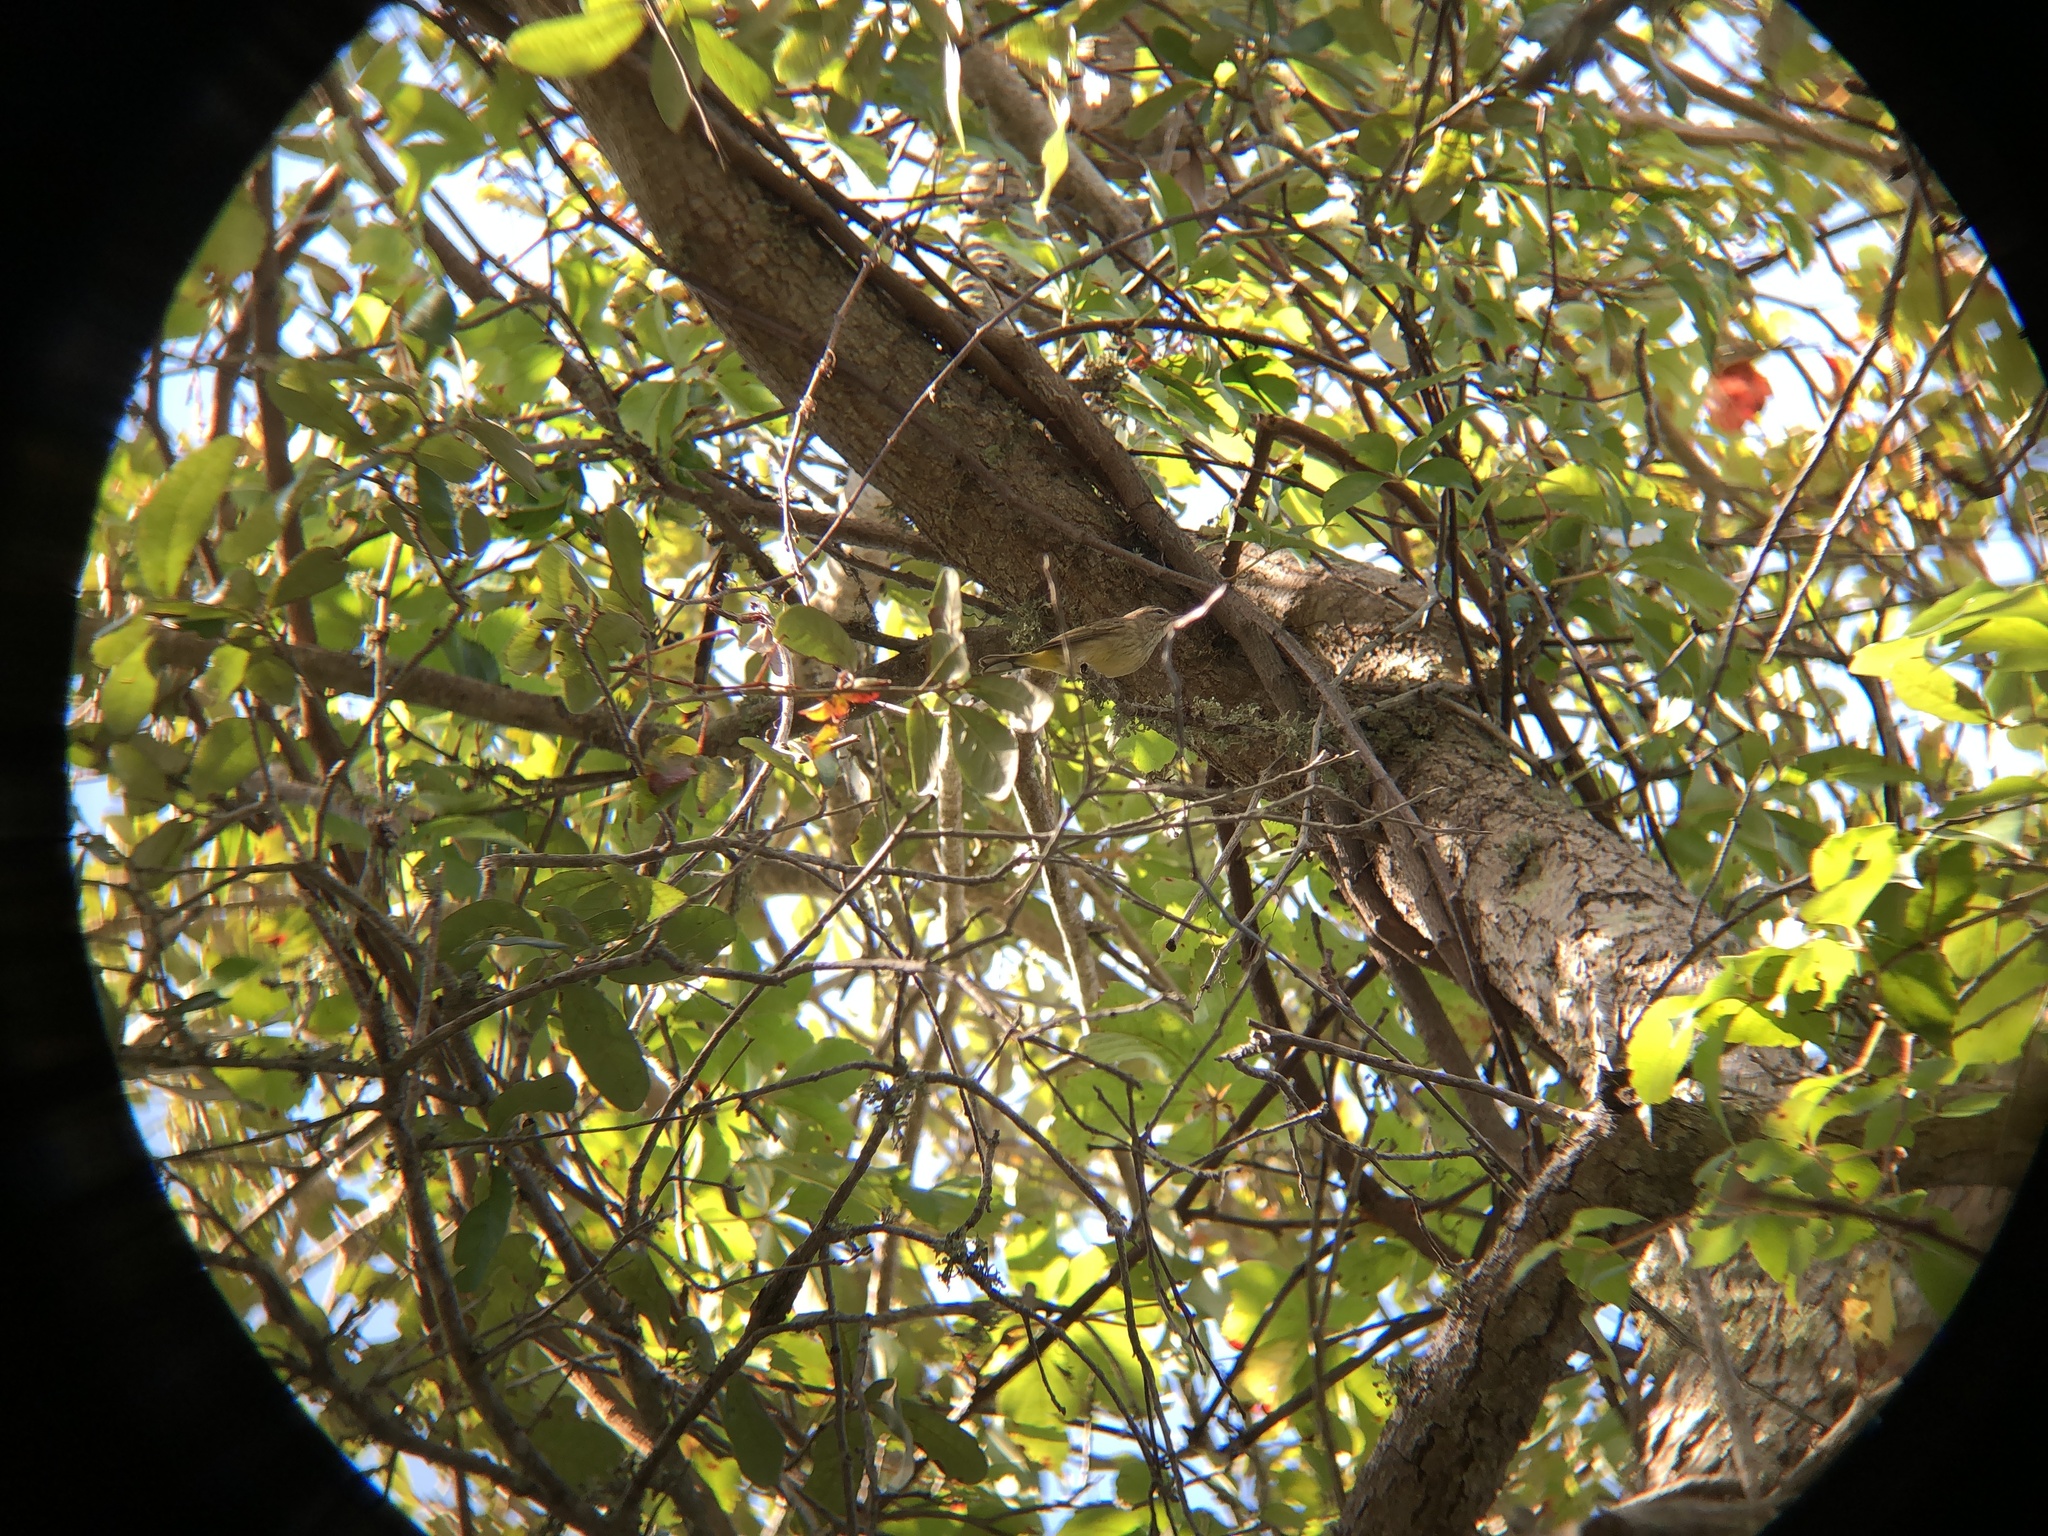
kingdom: Animalia
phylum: Chordata
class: Aves
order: Passeriformes
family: Parulidae
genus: Setophaga
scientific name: Setophaga palmarum
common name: Palm warbler
